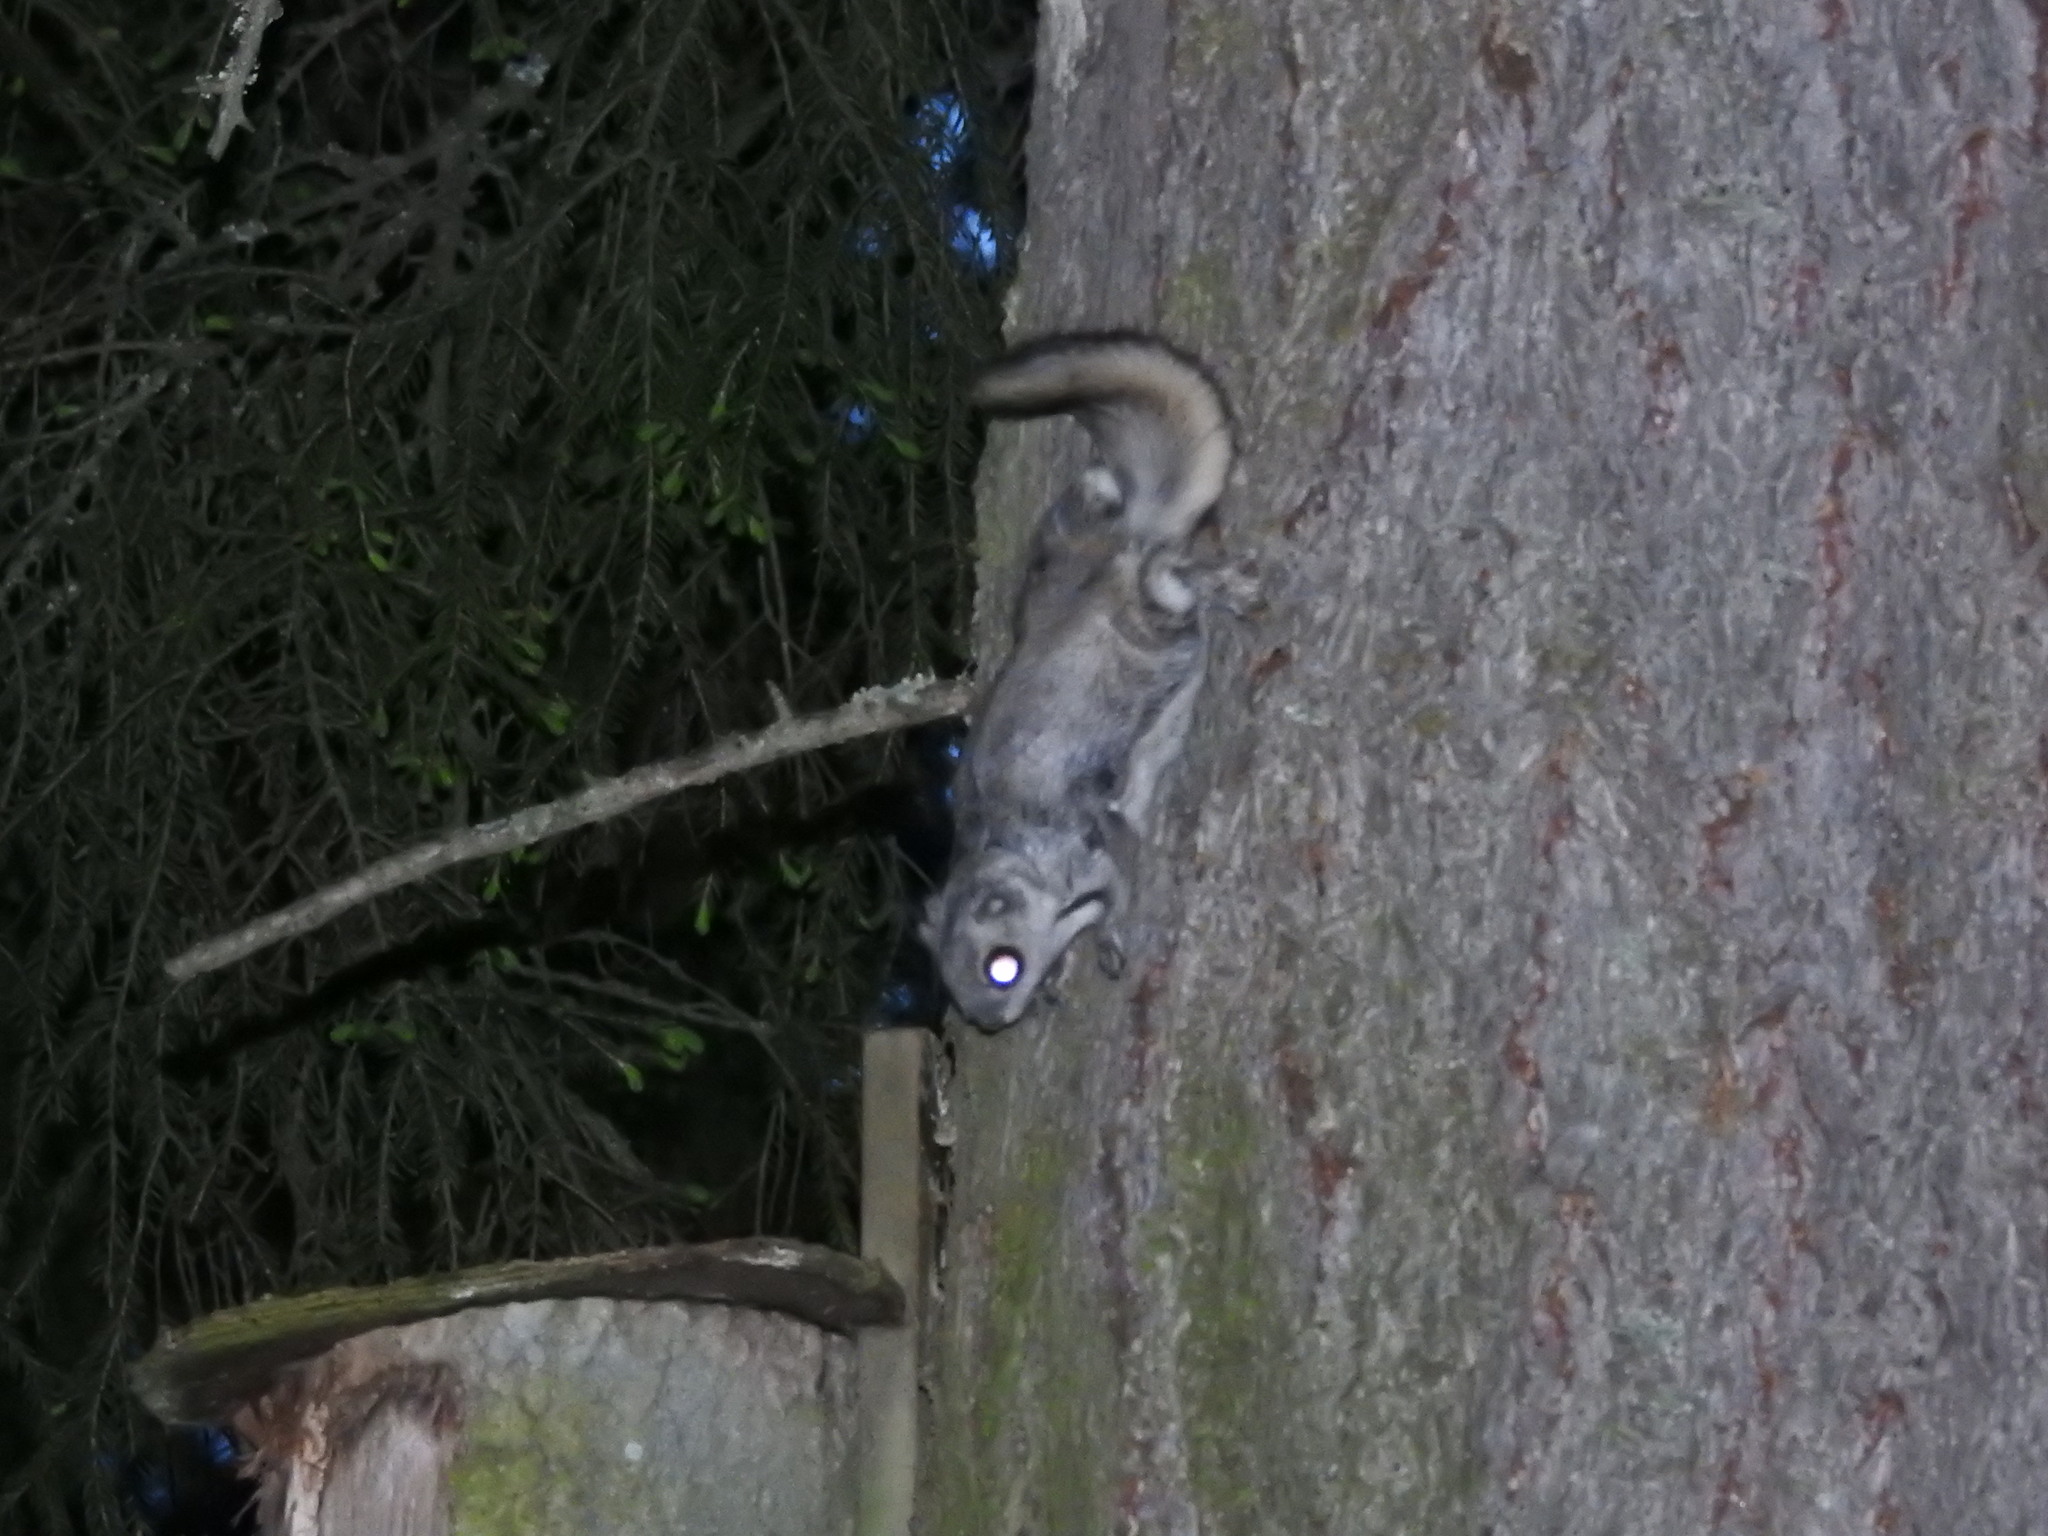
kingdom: Animalia
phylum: Chordata
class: Mammalia
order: Rodentia
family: Sciuridae
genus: Pteromys
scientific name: Pteromys volans
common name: Siberian flying squirrel
